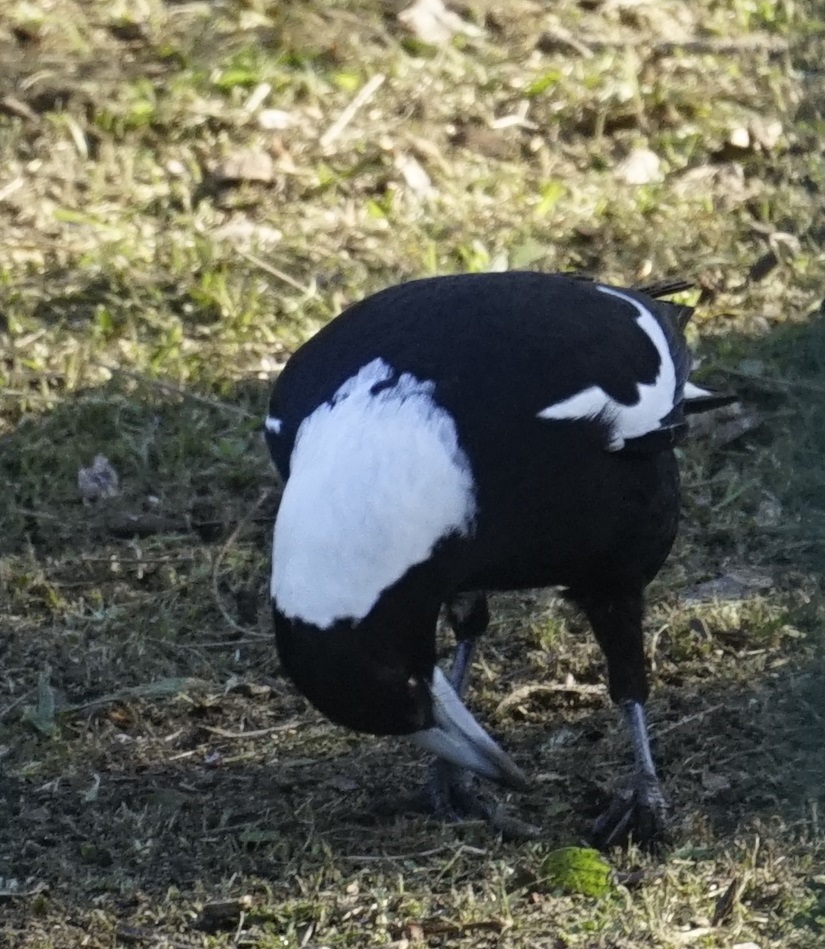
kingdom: Animalia
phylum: Chordata
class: Aves
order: Passeriformes
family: Cracticidae
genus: Gymnorhina
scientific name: Gymnorhina tibicen
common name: Australian magpie
